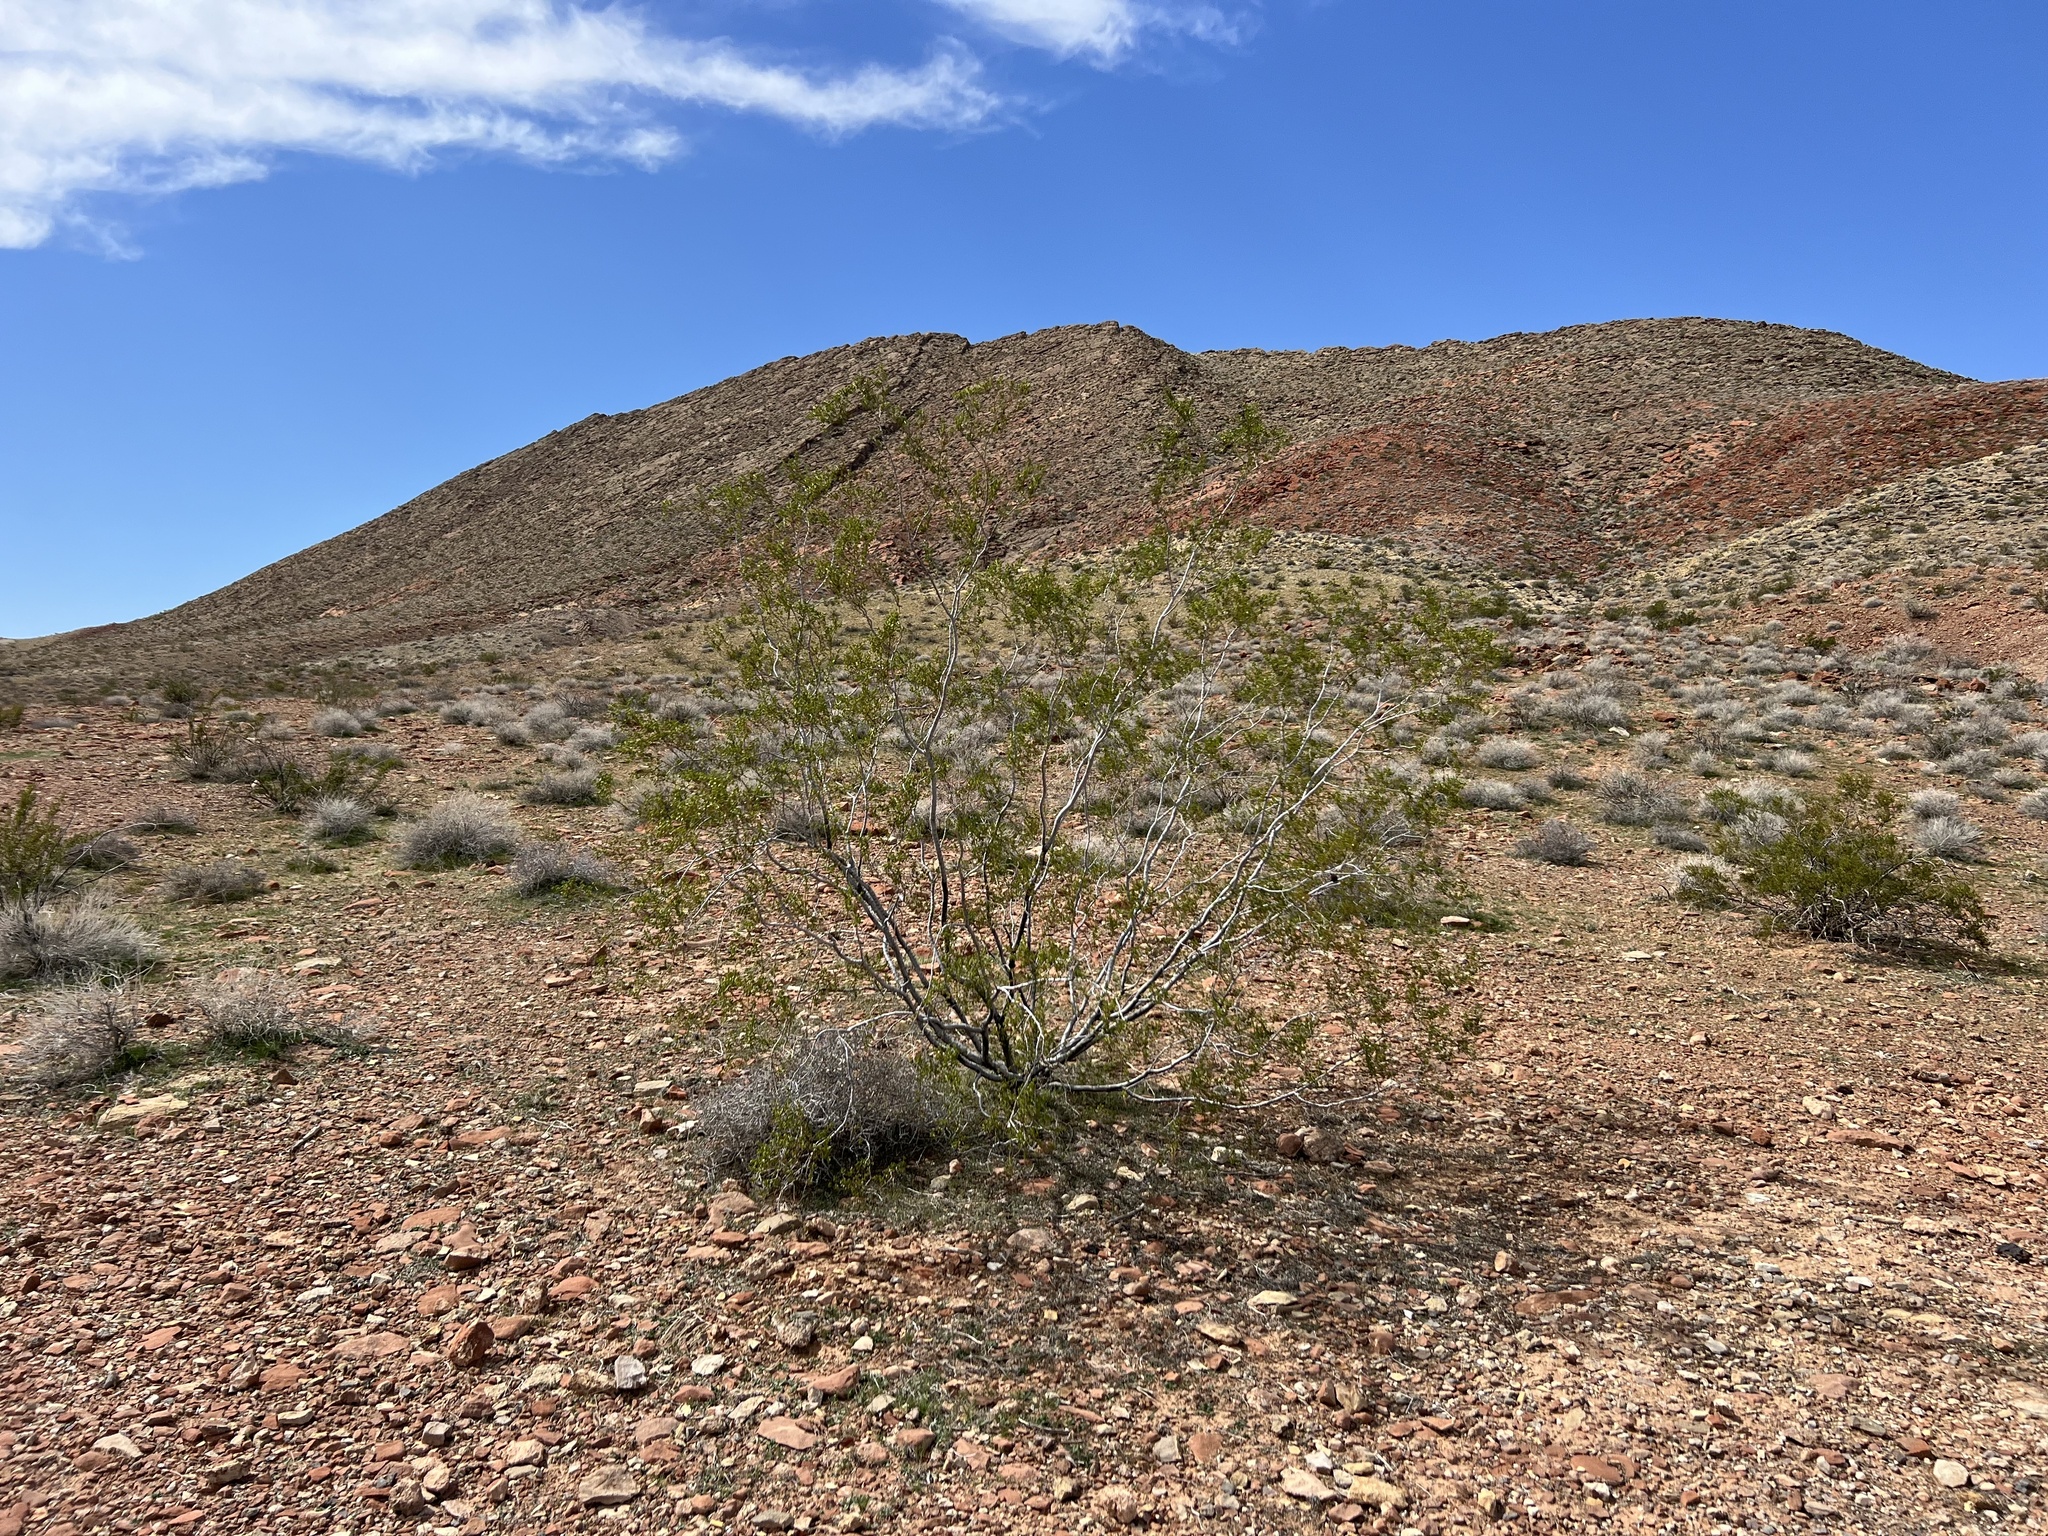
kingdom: Plantae
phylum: Tracheophyta
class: Magnoliopsida
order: Zygophyllales
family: Zygophyllaceae
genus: Larrea
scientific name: Larrea tridentata
